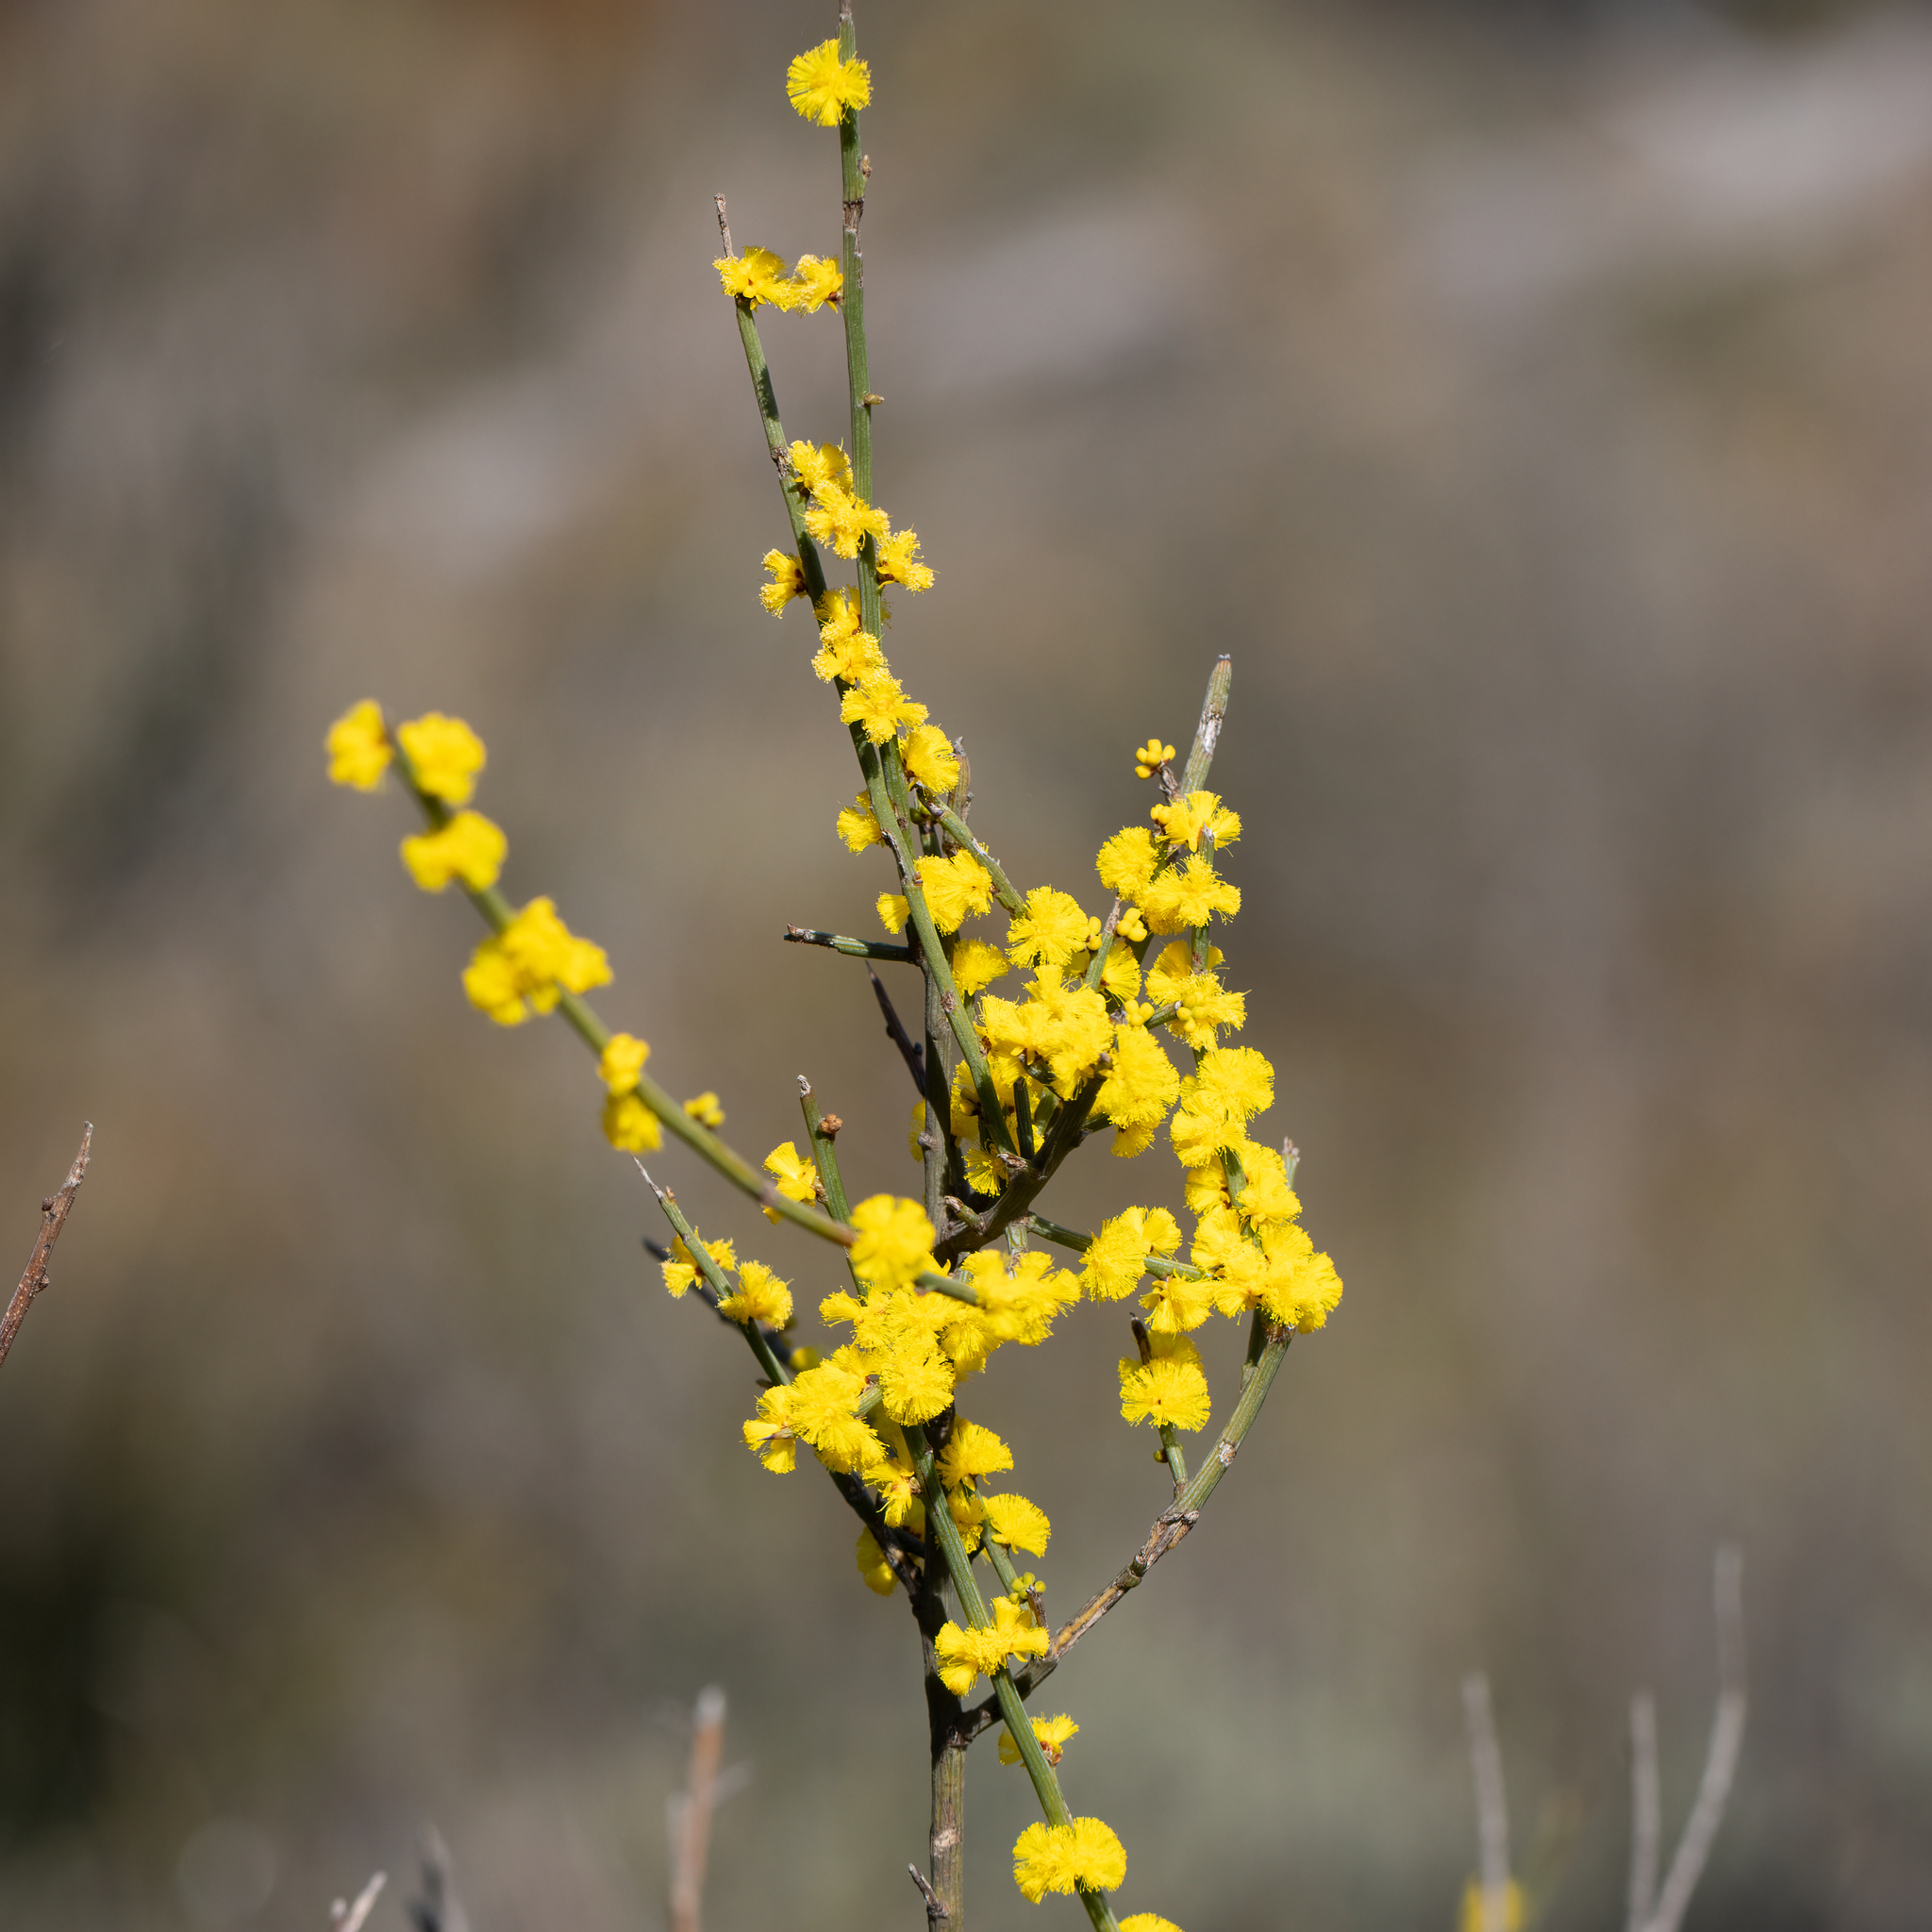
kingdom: Plantae
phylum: Tracheophyta
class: Magnoliopsida
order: Fabales
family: Fabaceae
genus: Acacia
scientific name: Acacia spinescens
